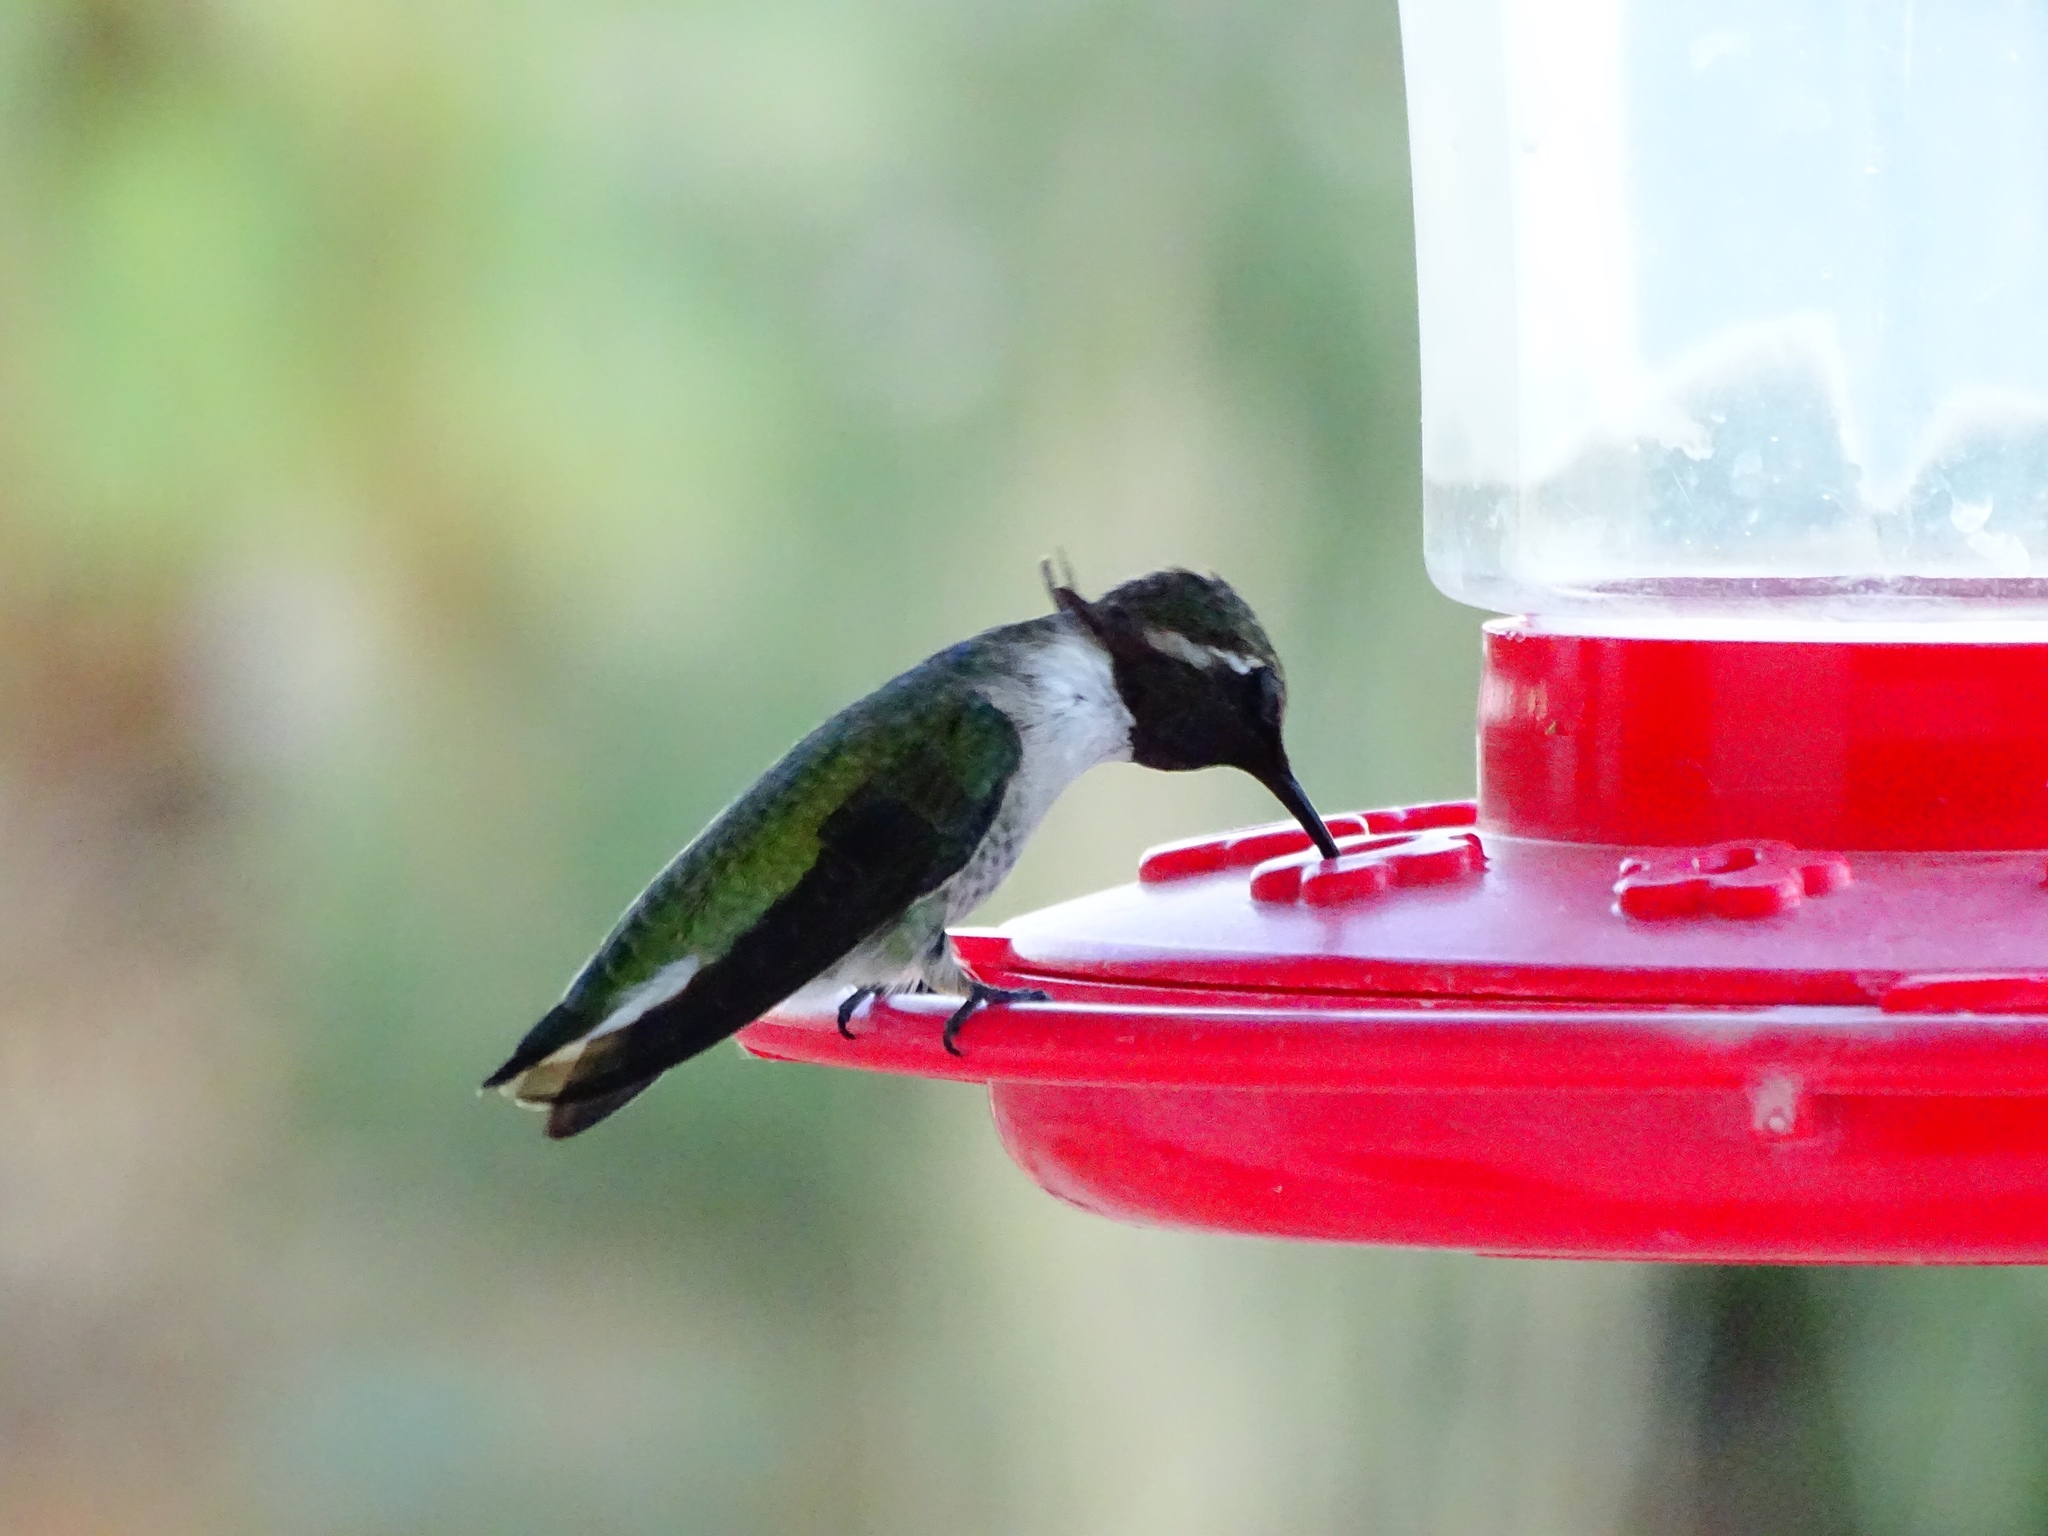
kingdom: Animalia
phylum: Chordata
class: Aves
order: Apodiformes
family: Trochilidae
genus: Calypte
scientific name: Calypte costae
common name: Costa's hummingbird
